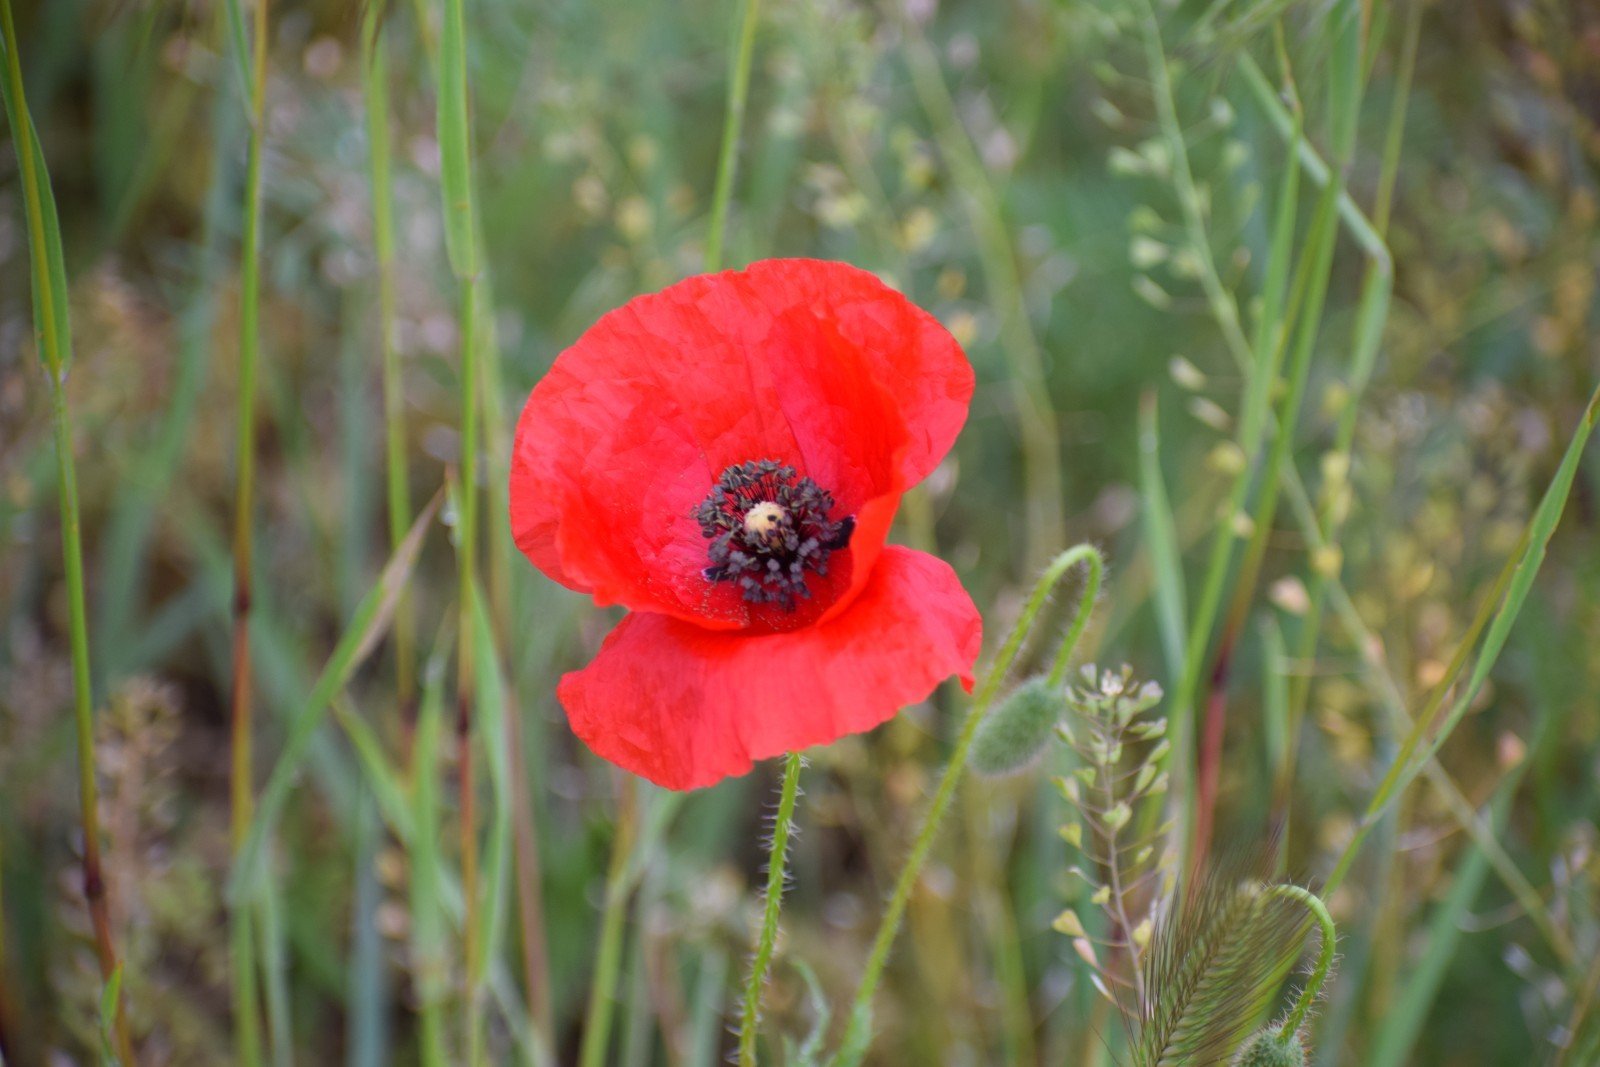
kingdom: Plantae
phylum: Tracheophyta
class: Magnoliopsida
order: Ranunculales
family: Papaveraceae
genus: Papaver
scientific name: Papaver rhoeas
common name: Corn poppy
